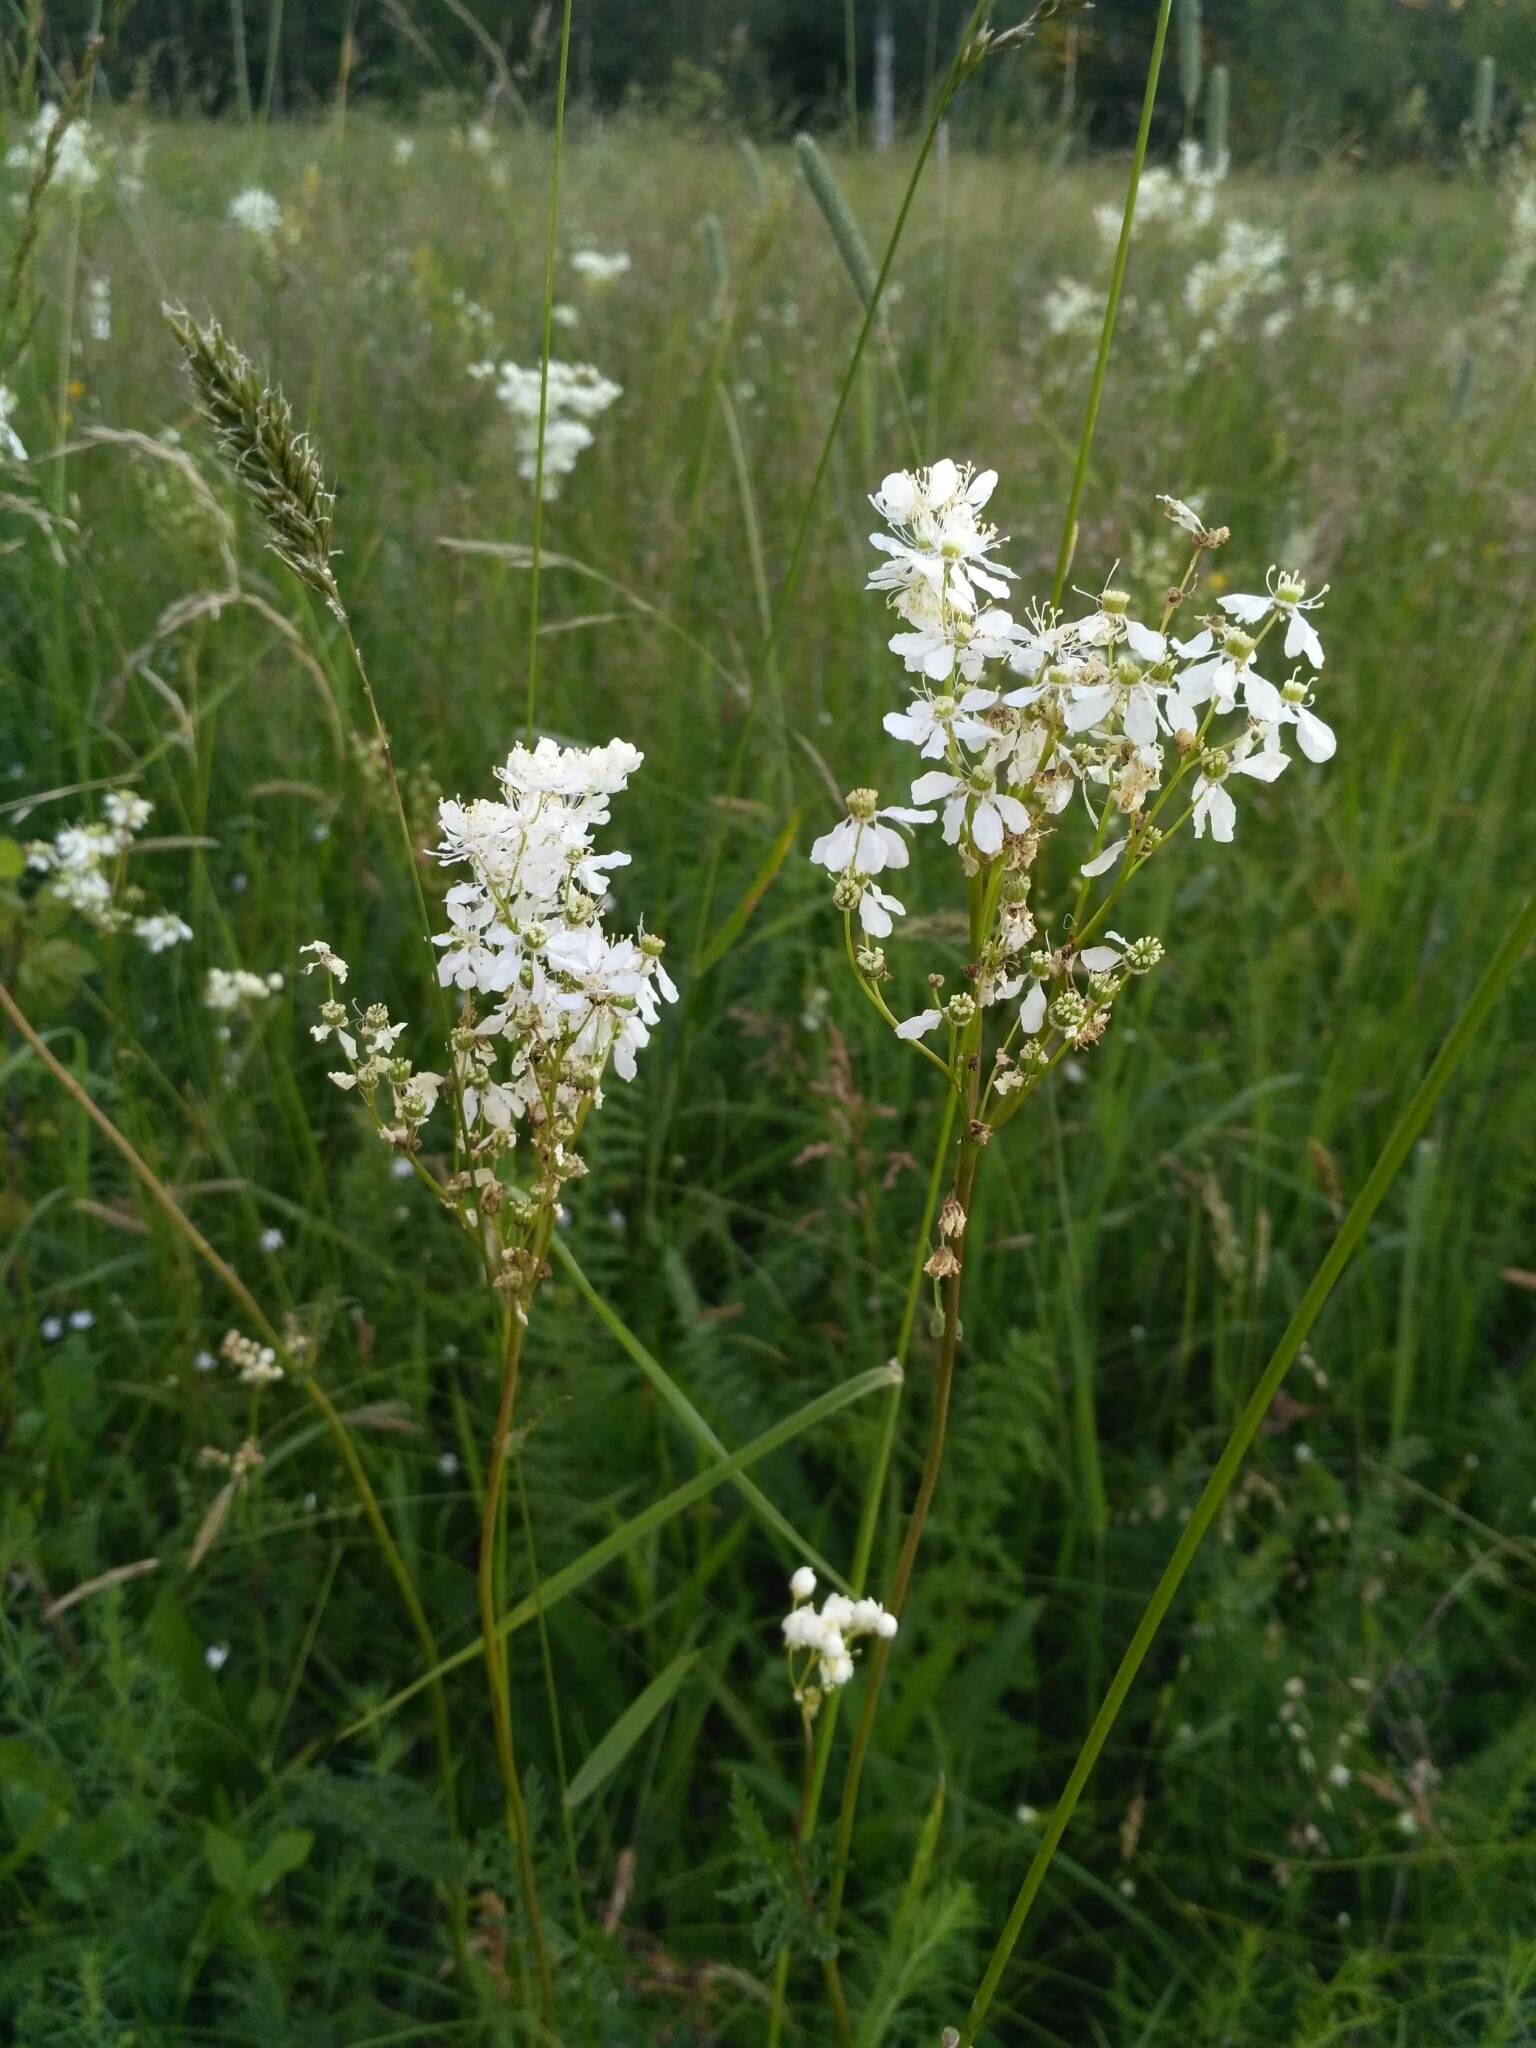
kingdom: Plantae
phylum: Tracheophyta
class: Magnoliopsida
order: Rosales
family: Rosaceae
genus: Filipendula
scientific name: Filipendula vulgaris
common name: Dropwort
